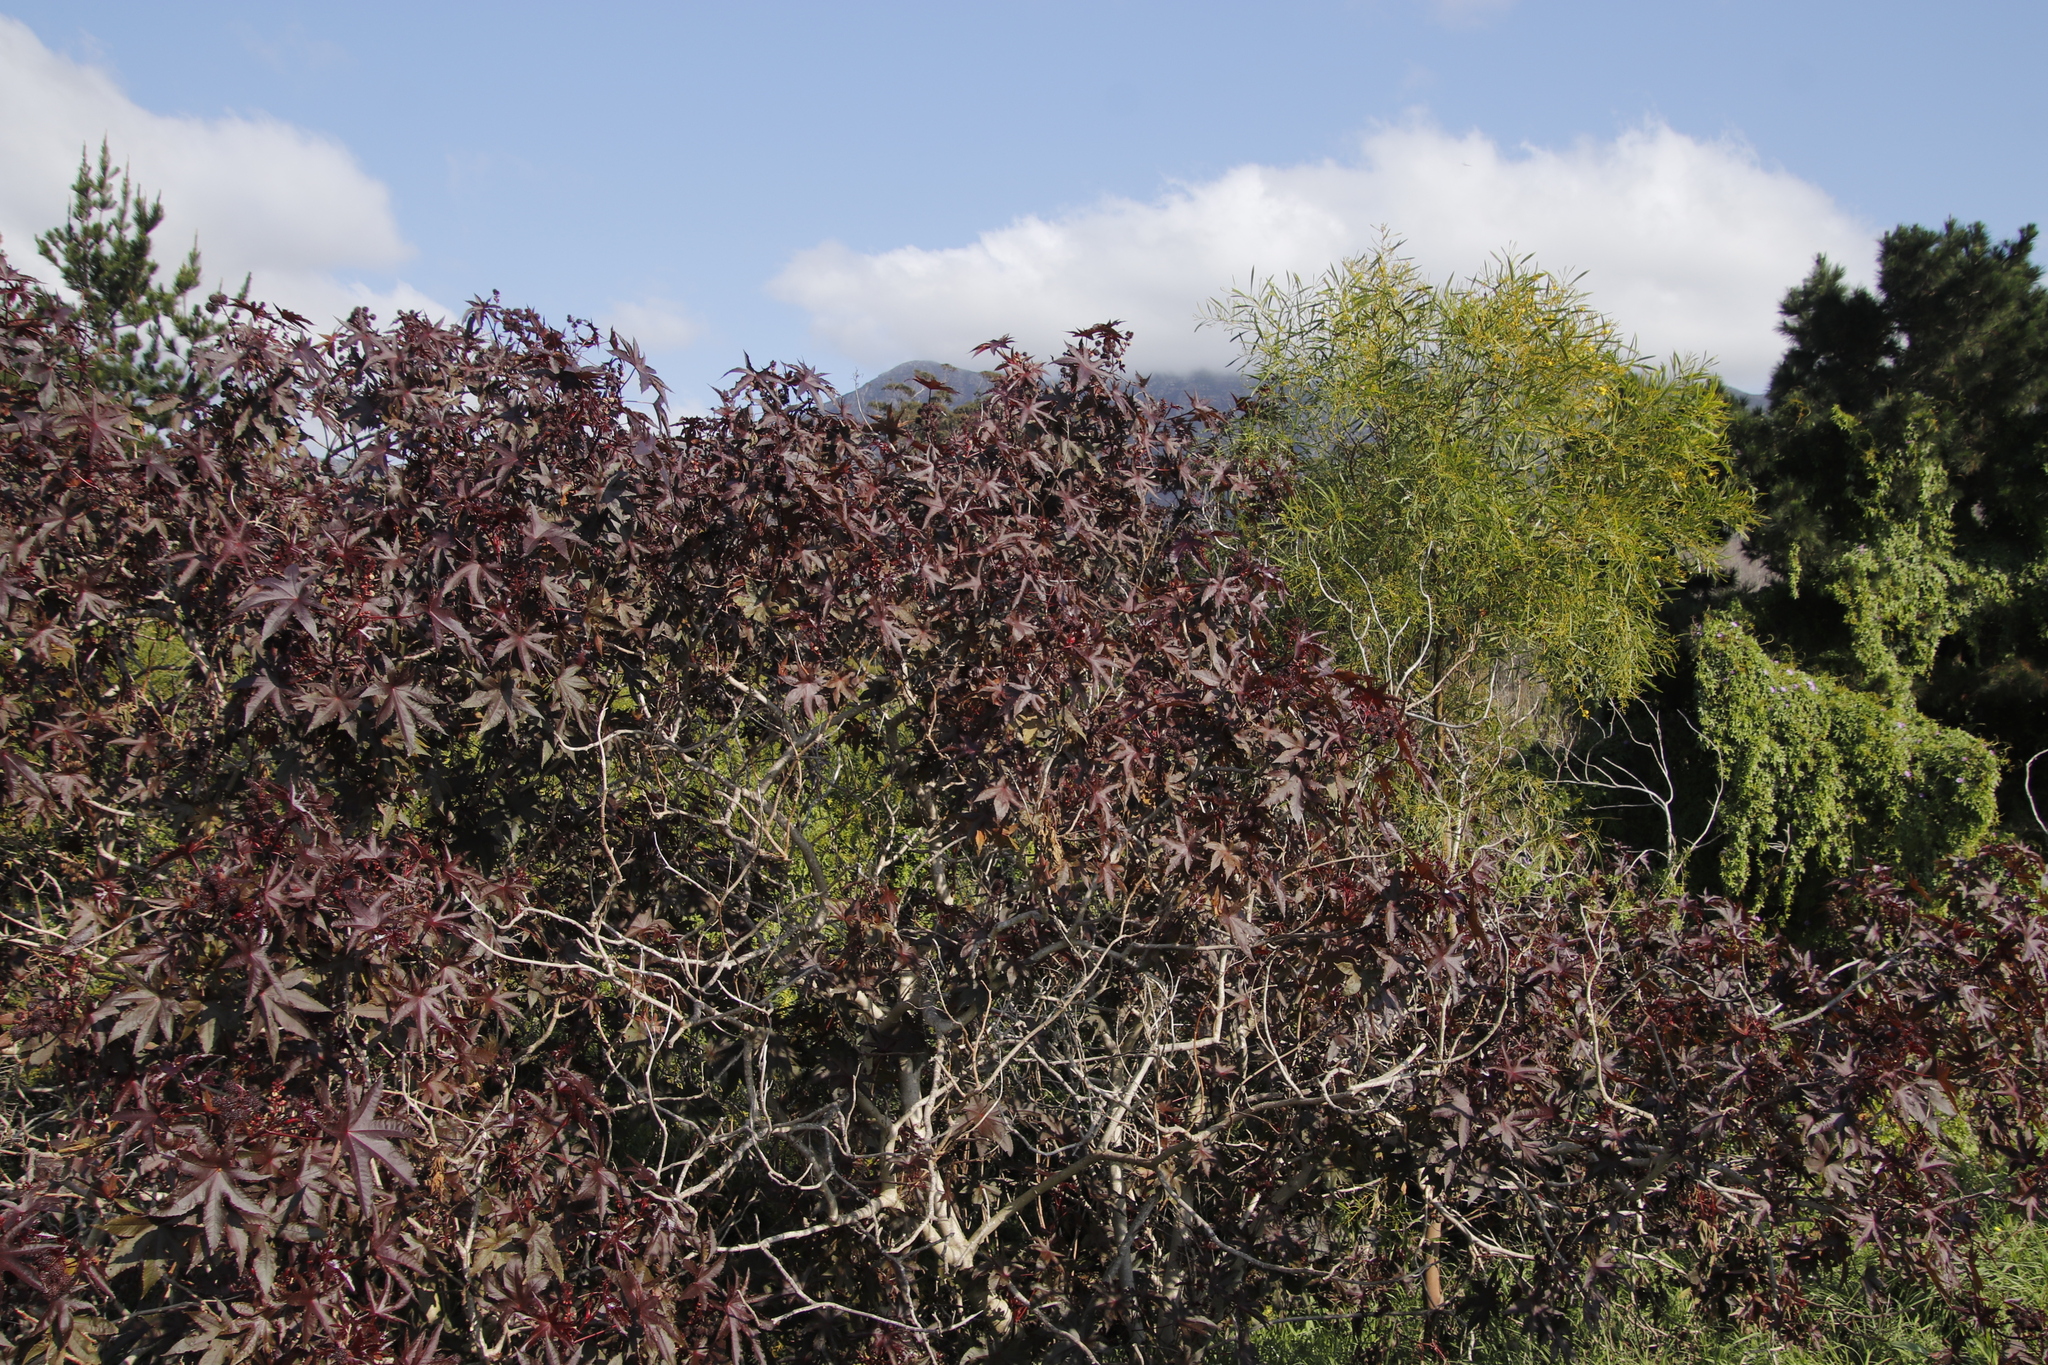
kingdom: Plantae
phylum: Tracheophyta
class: Magnoliopsida
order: Malpighiales
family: Euphorbiaceae
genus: Ricinus
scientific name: Ricinus communis
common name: Castor-oil-plant
